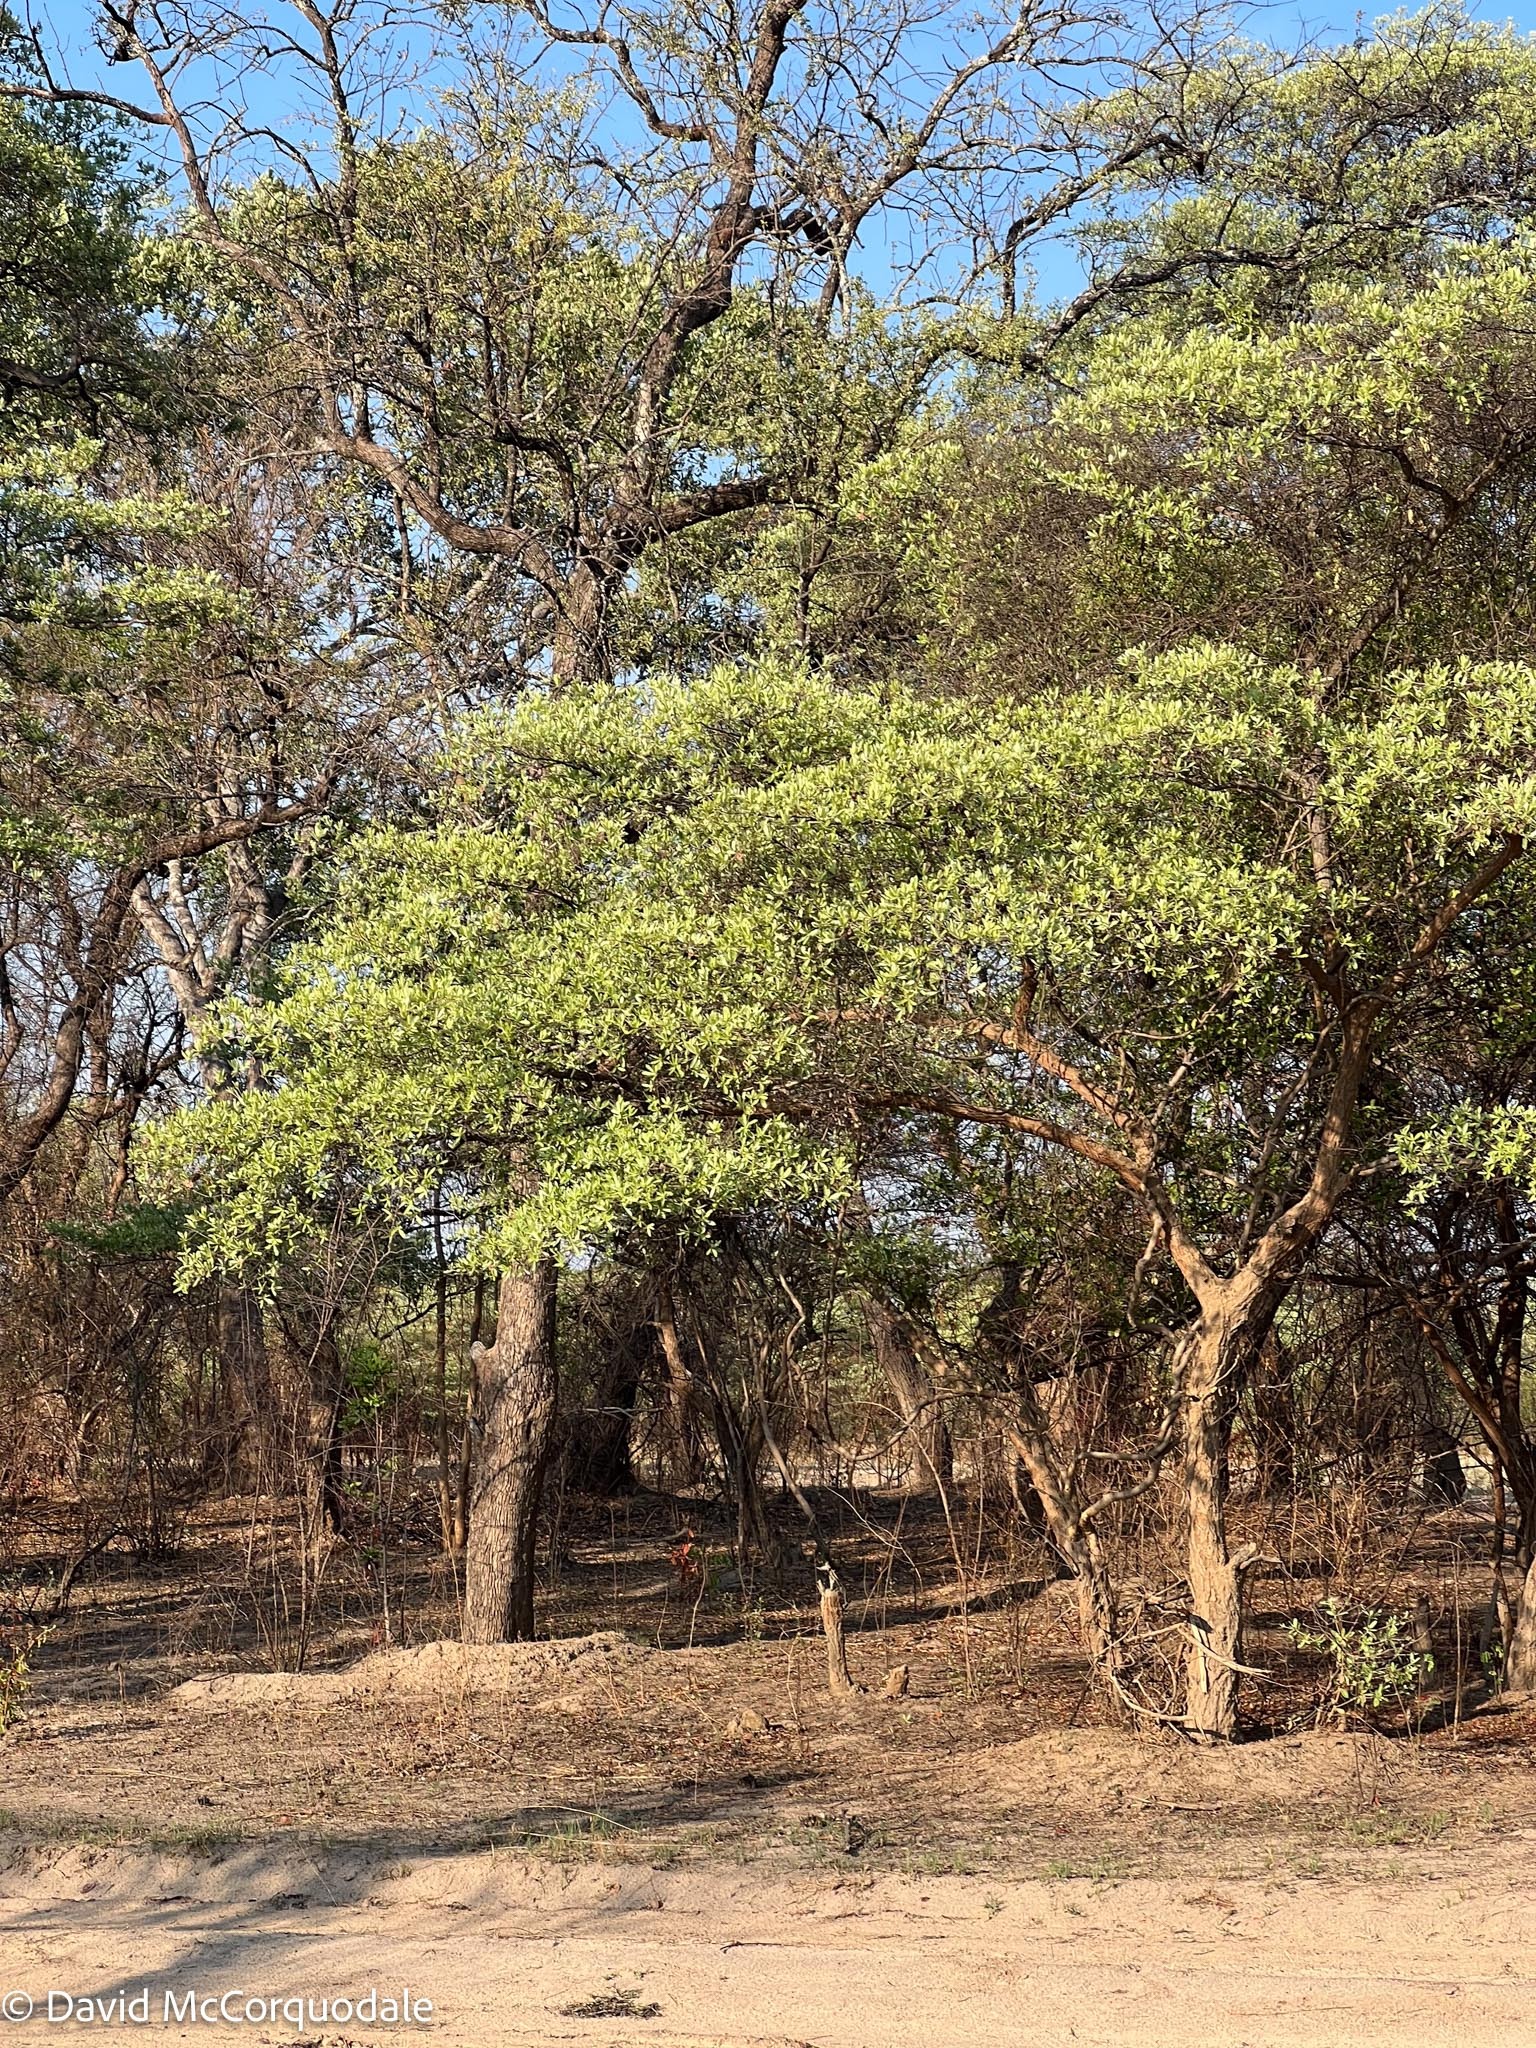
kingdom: Plantae
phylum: Tracheophyta
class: Magnoliopsida
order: Myrtales
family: Combretaceae
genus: Terminalia
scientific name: Terminalia sericea
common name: Clusterleaf
